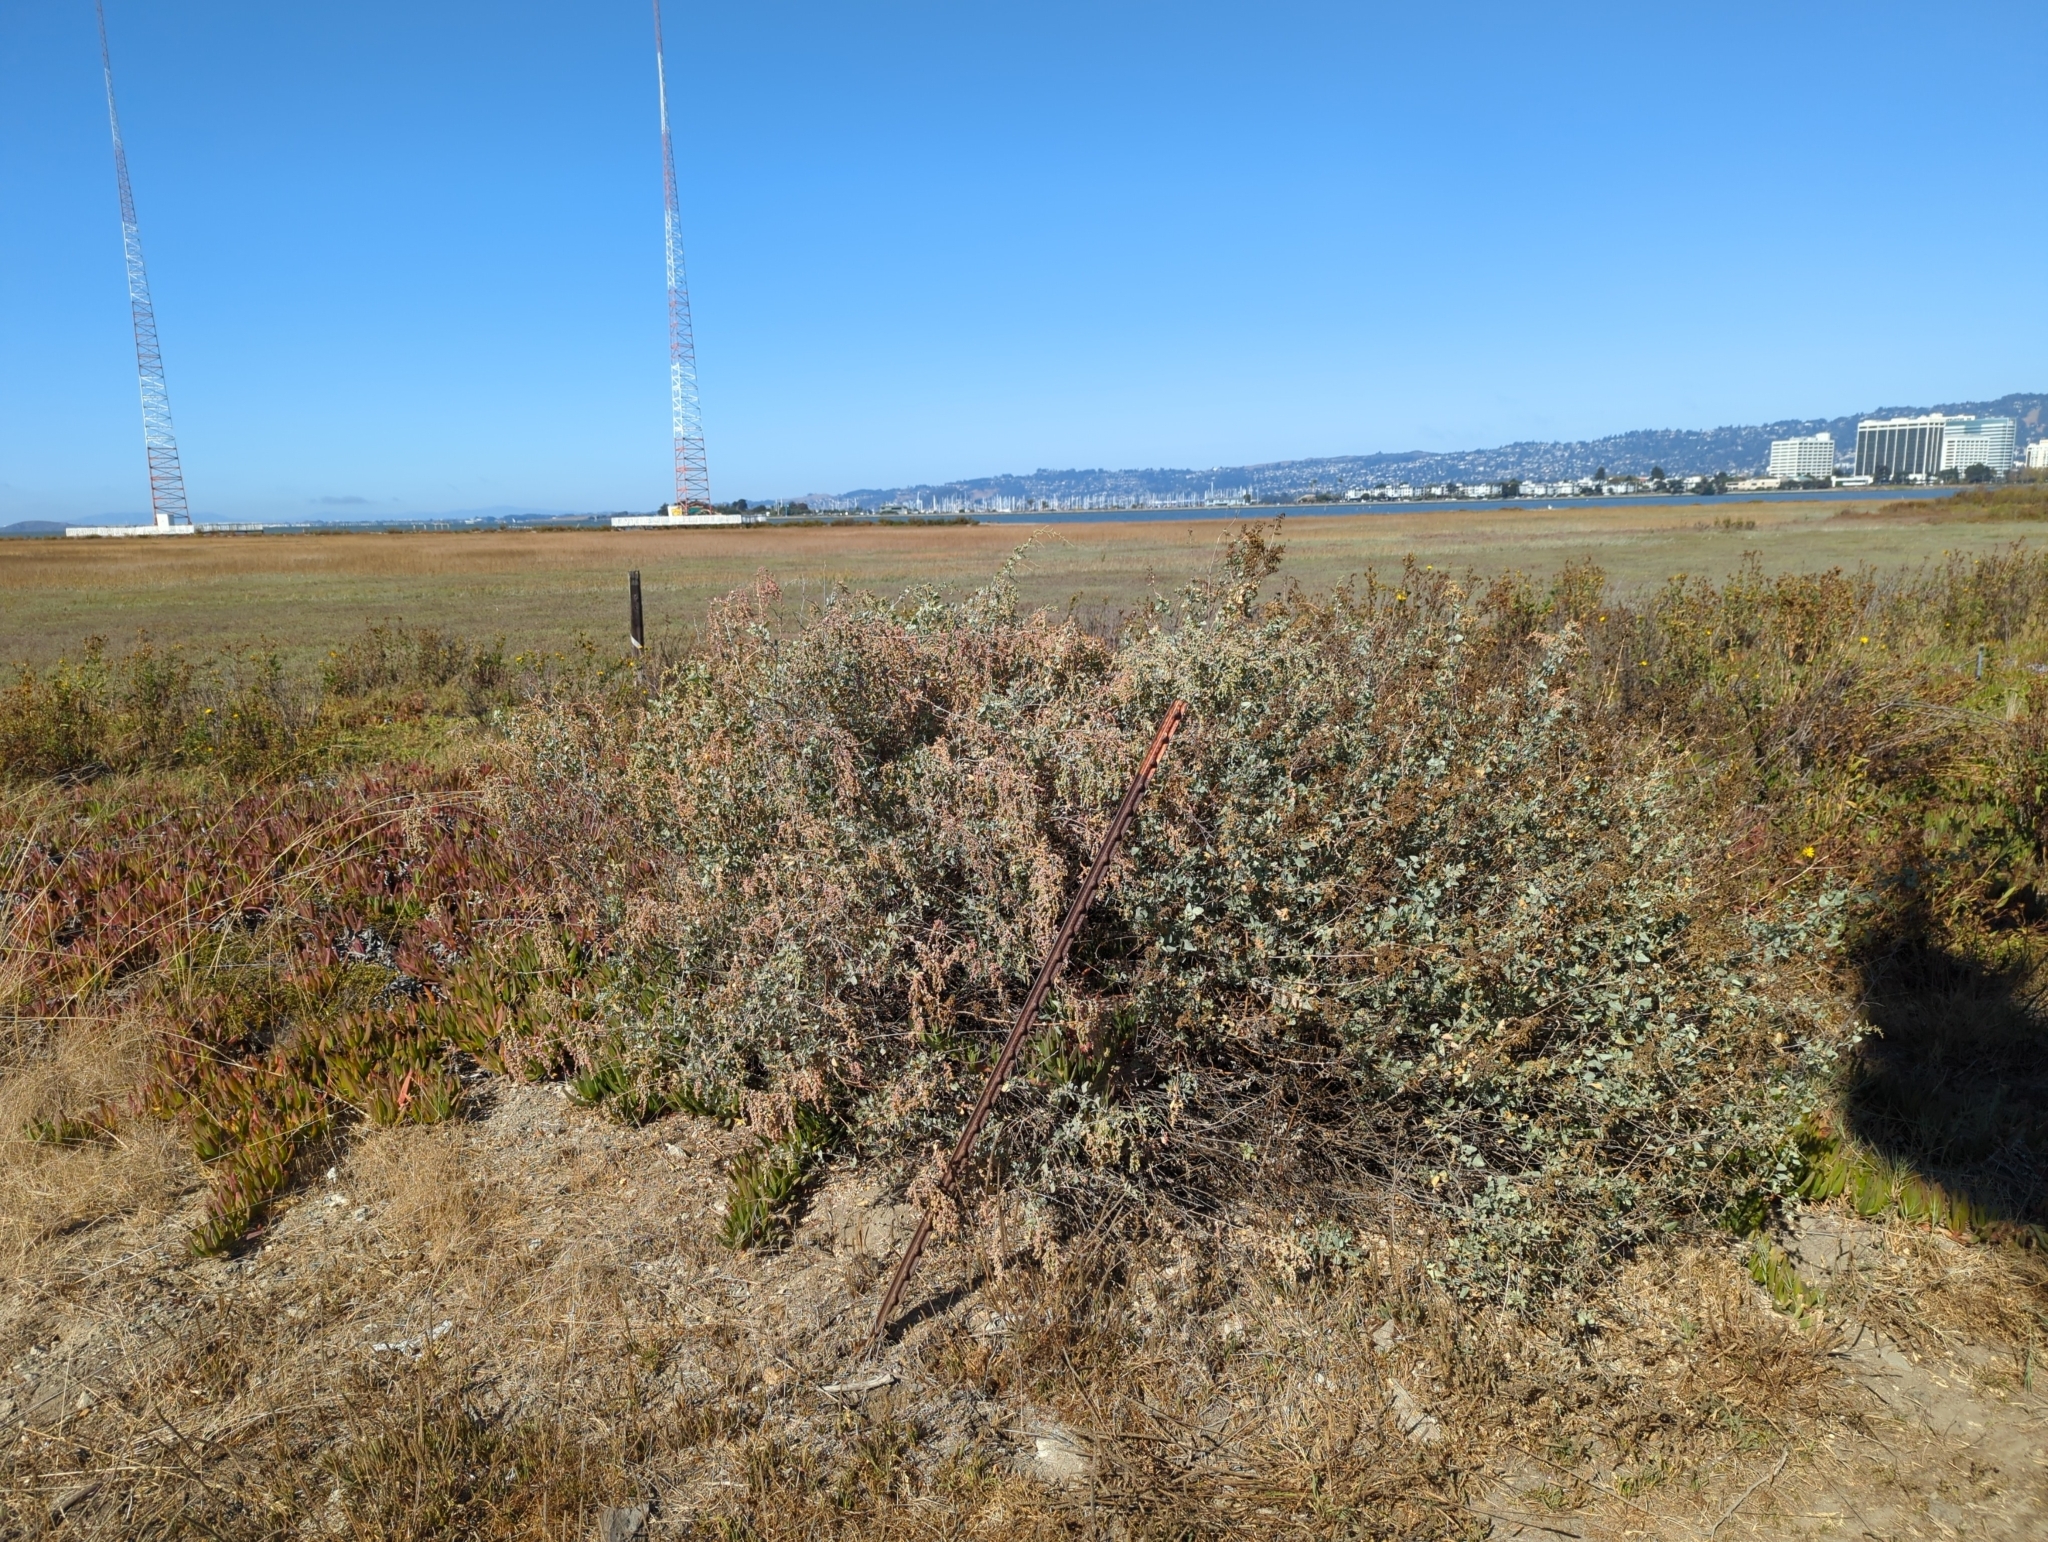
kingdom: Plantae
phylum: Tracheophyta
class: Magnoliopsida
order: Caryophyllales
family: Amaranthaceae
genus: Atriplex
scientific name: Atriplex lentiformis
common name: Big saltbush
